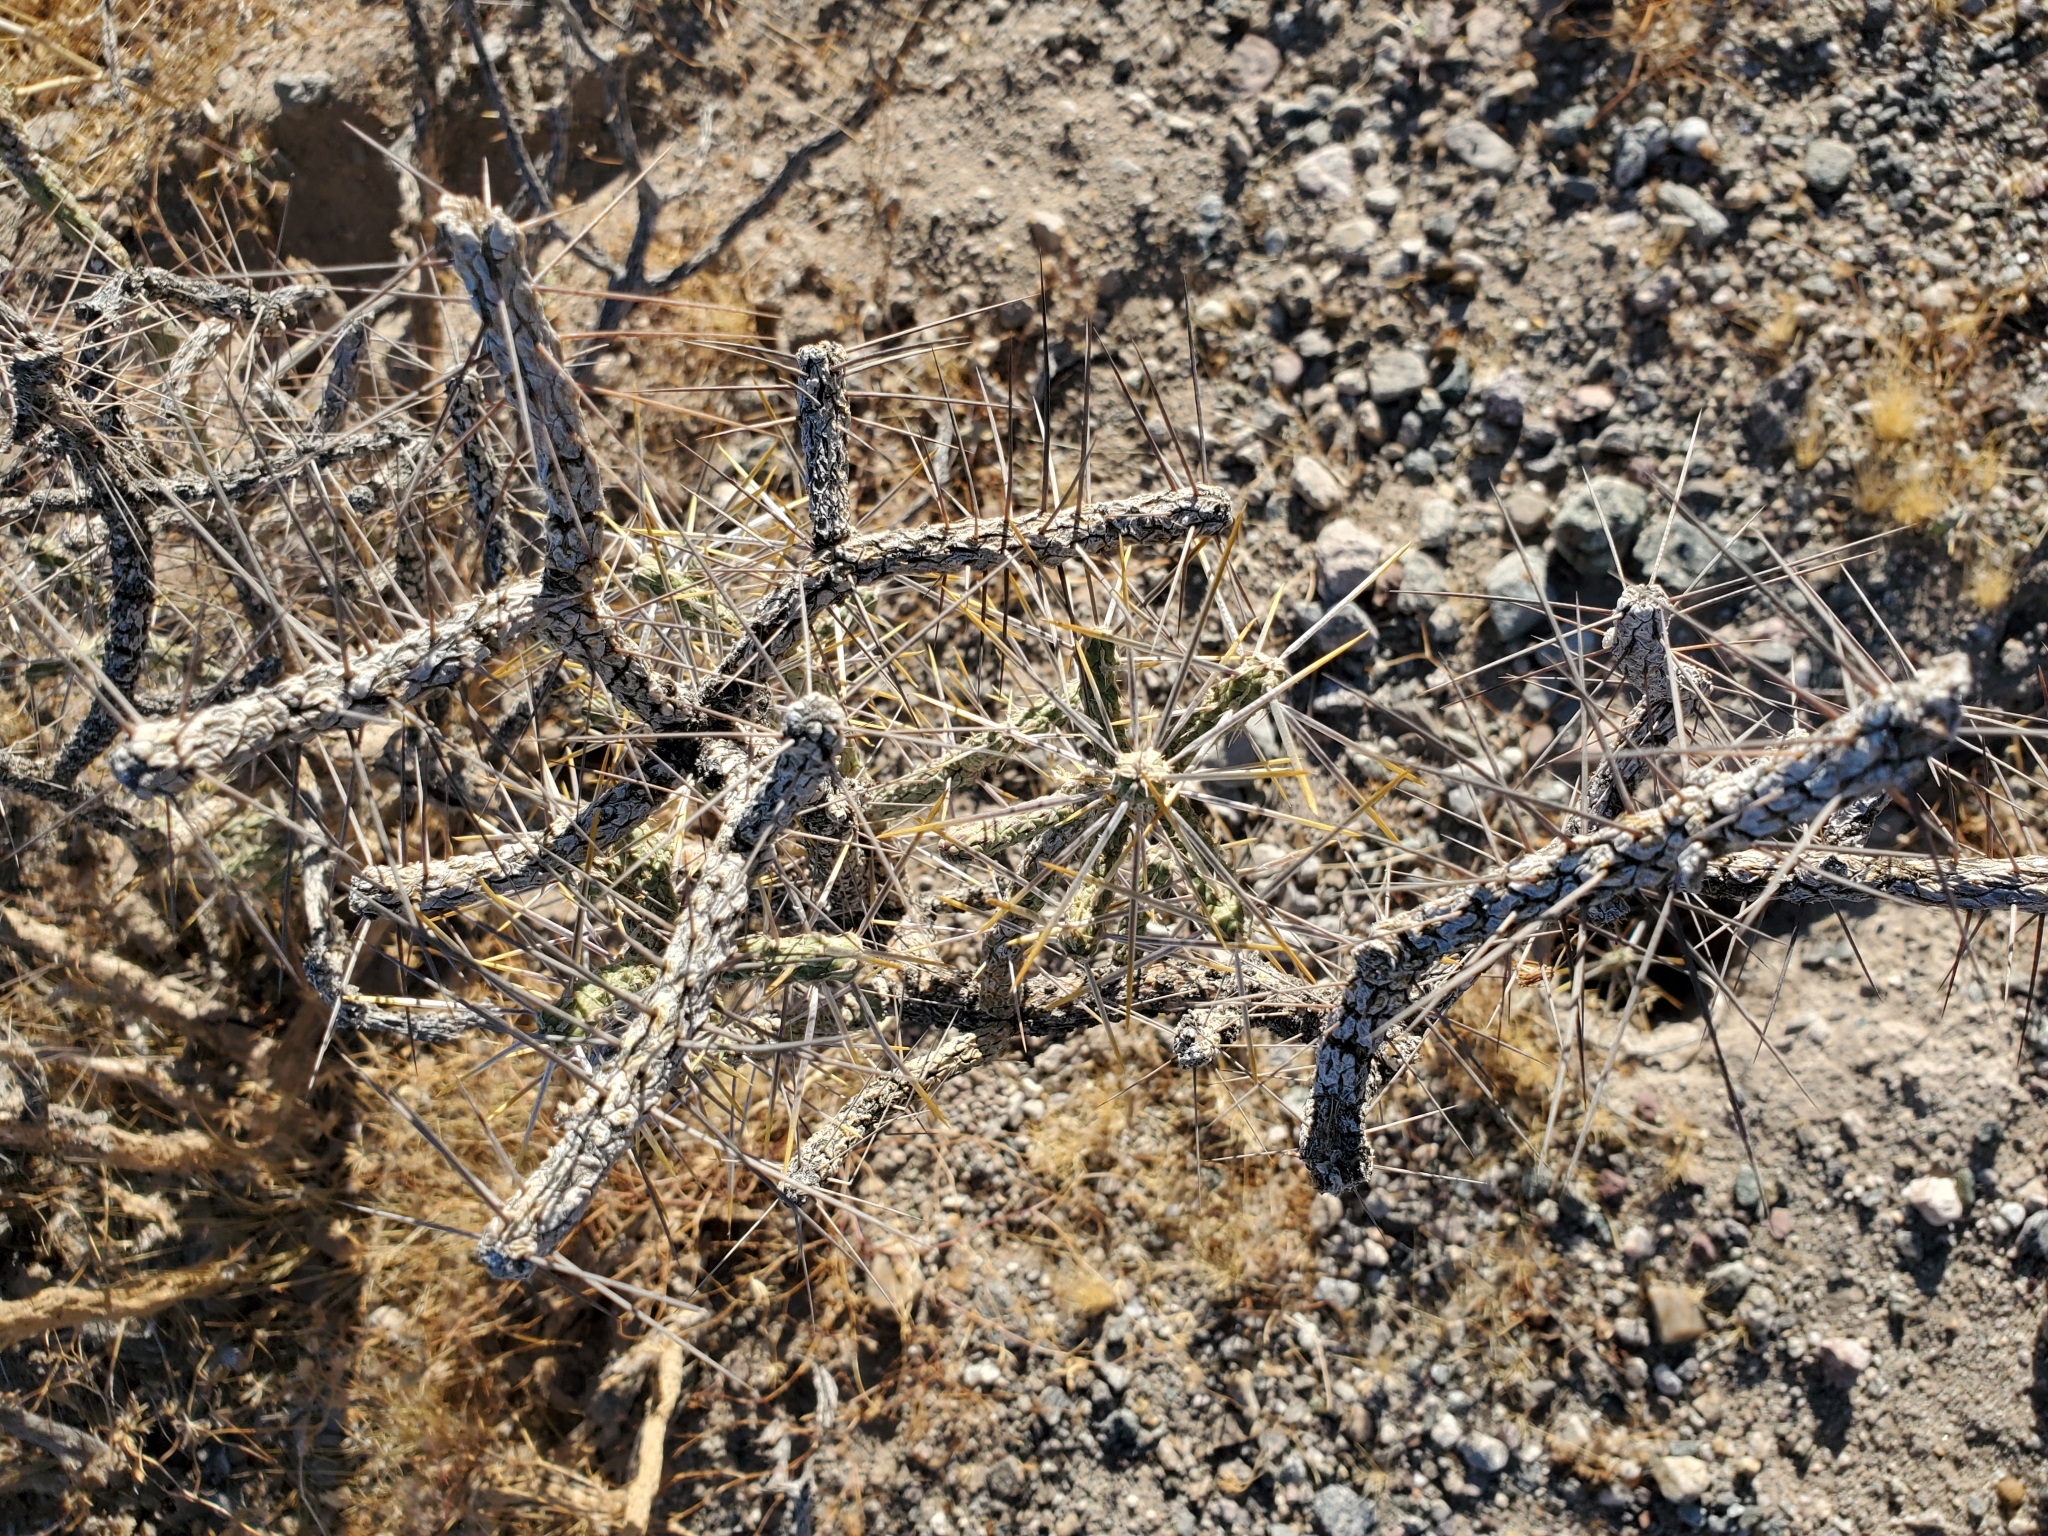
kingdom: Plantae
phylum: Tracheophyta
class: Magnoliopsida
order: Caryophyllales
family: Cactaceae
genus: Cylindropuntia
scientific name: Cylindropuntia ramosissima
